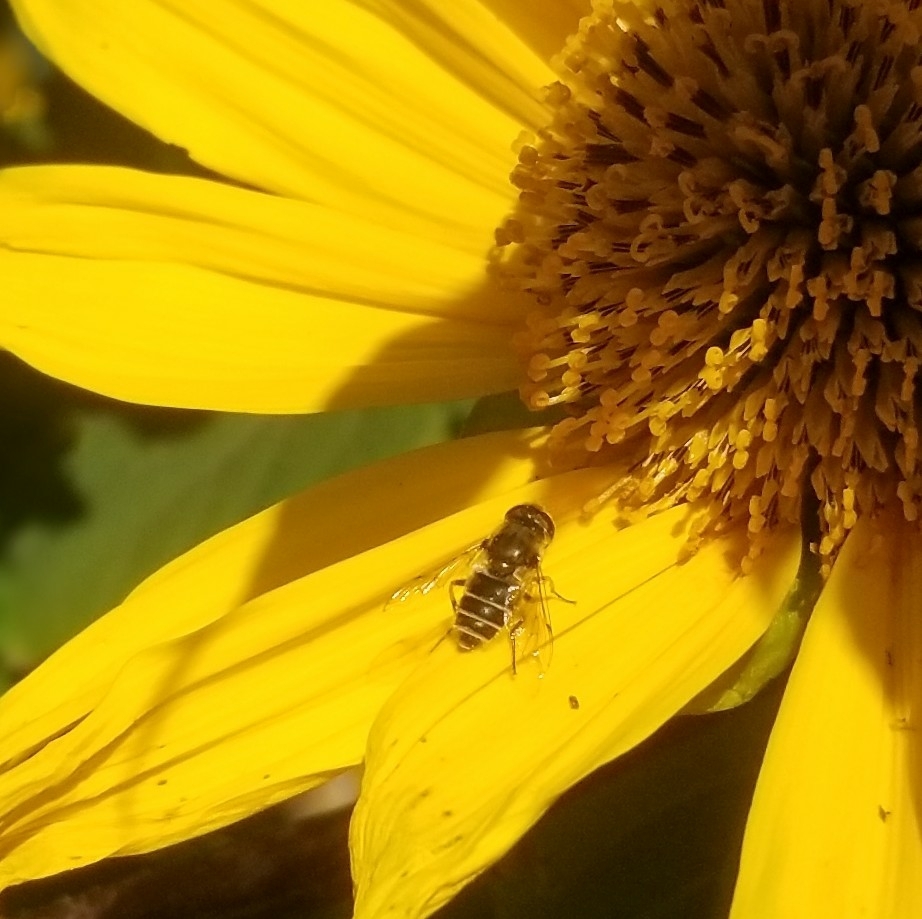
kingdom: Animalia
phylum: Arthropoda
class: Insecta
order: Diptera
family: Syrphidae
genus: Eristalis
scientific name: Eristalis arbustorum
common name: Hover fly
